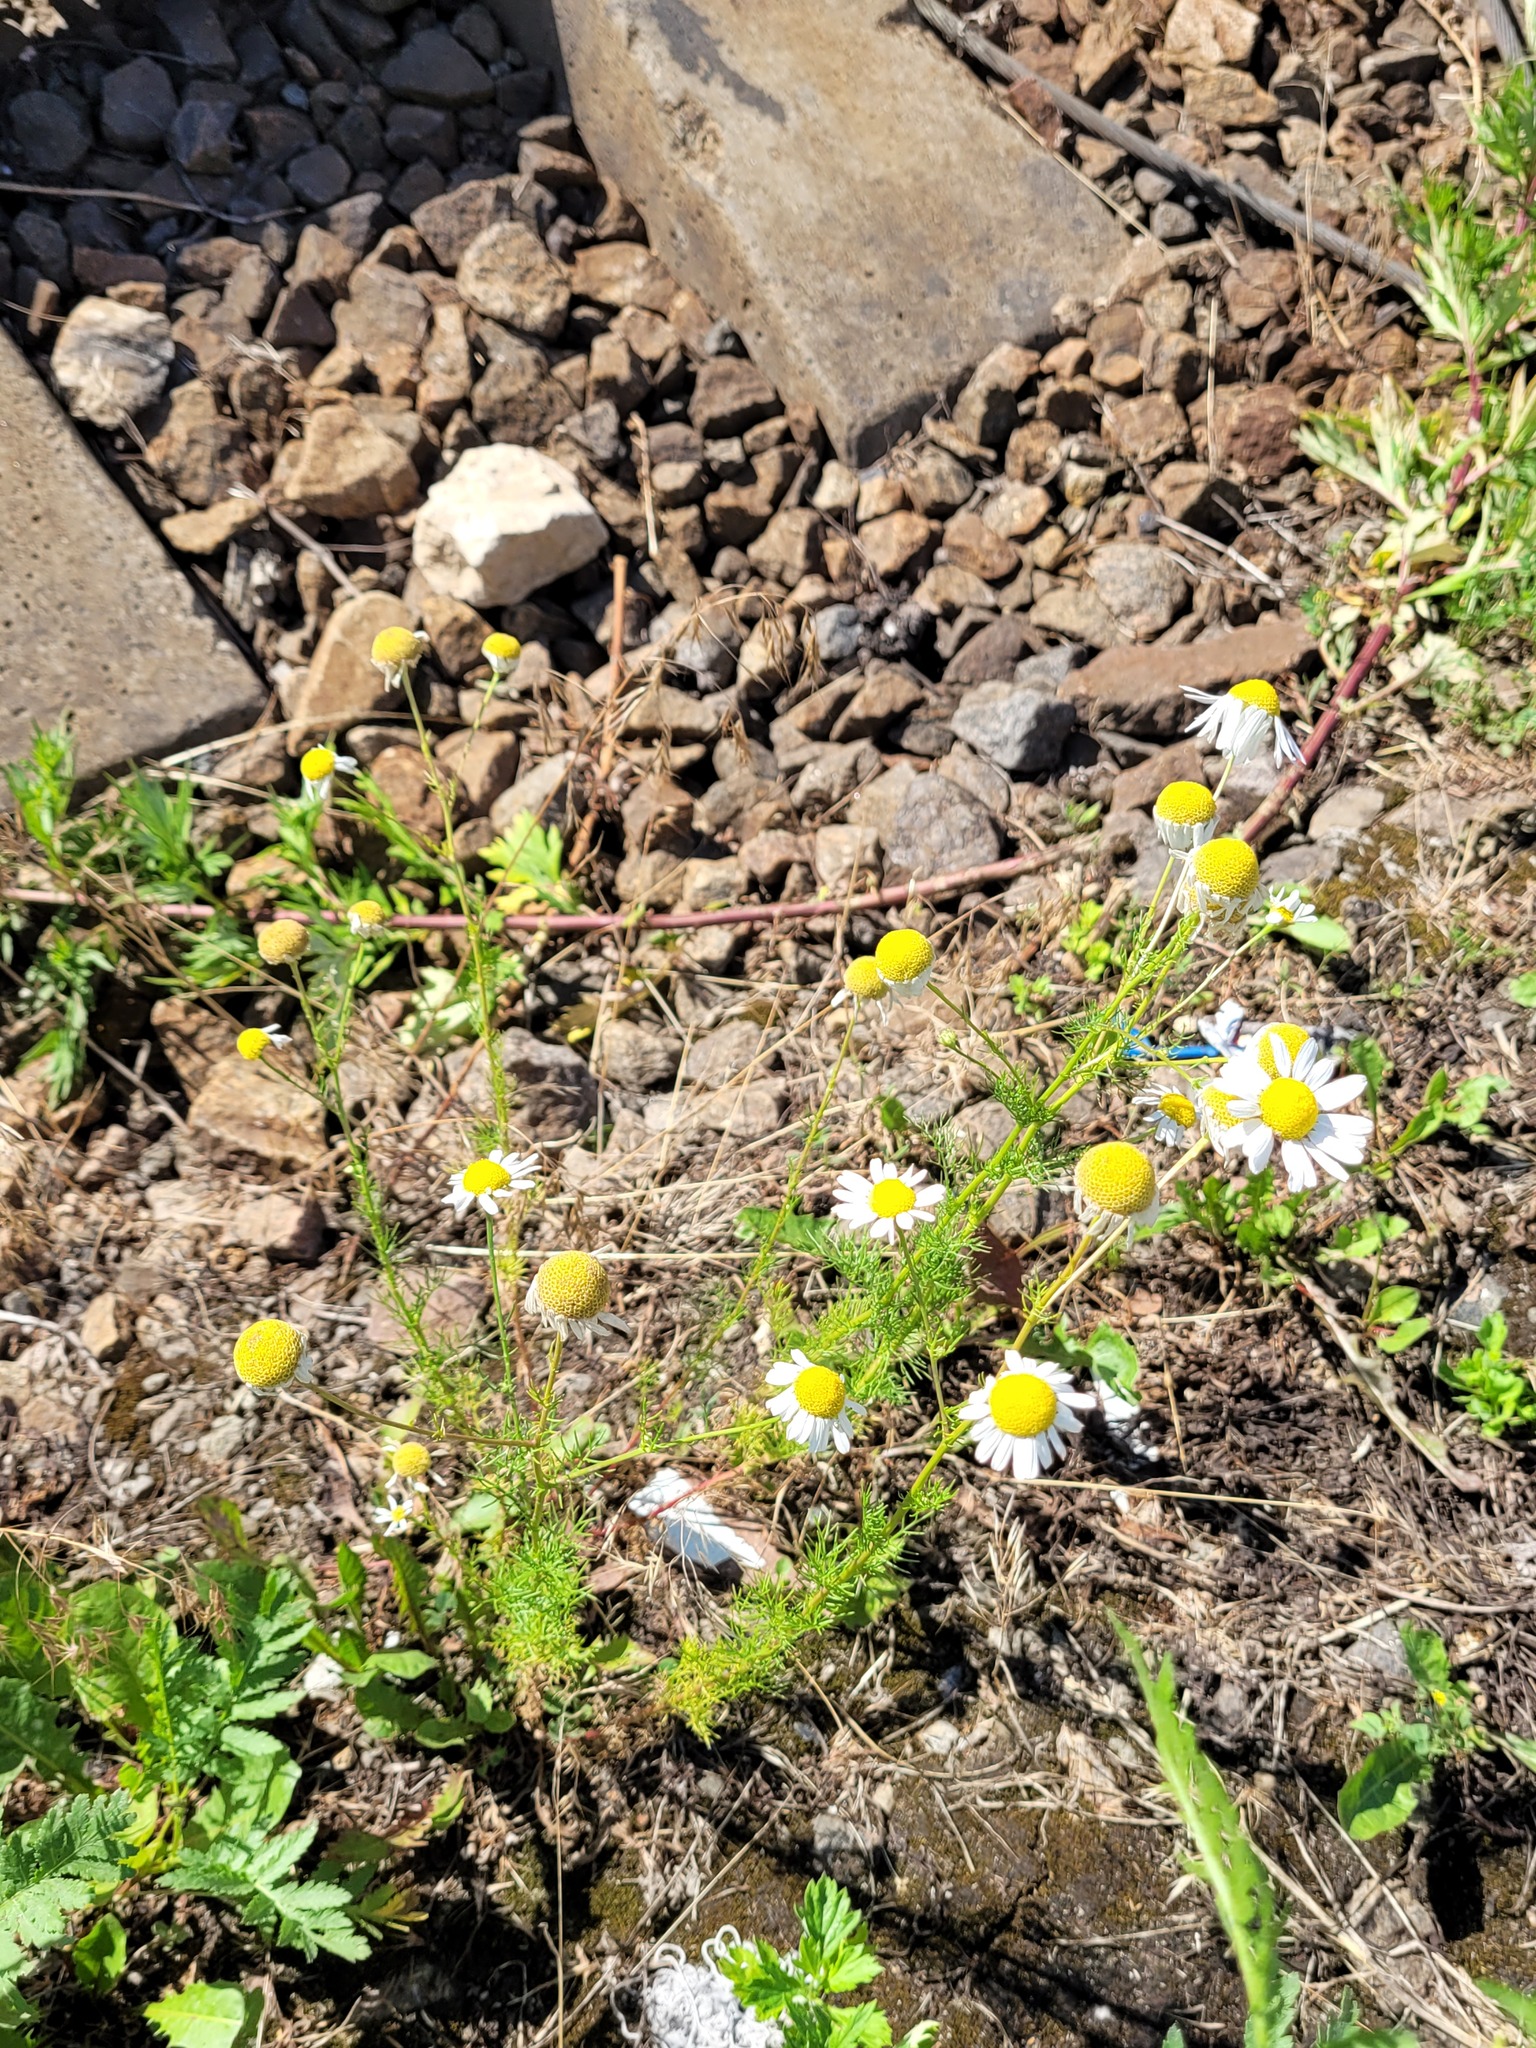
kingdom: Plantae
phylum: Tracheophyta
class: Magnoliopsida
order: Asterales
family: Asteraceae
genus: Tripleurospermum
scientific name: Tripleurospermum inodorum
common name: Scentless mayweed
